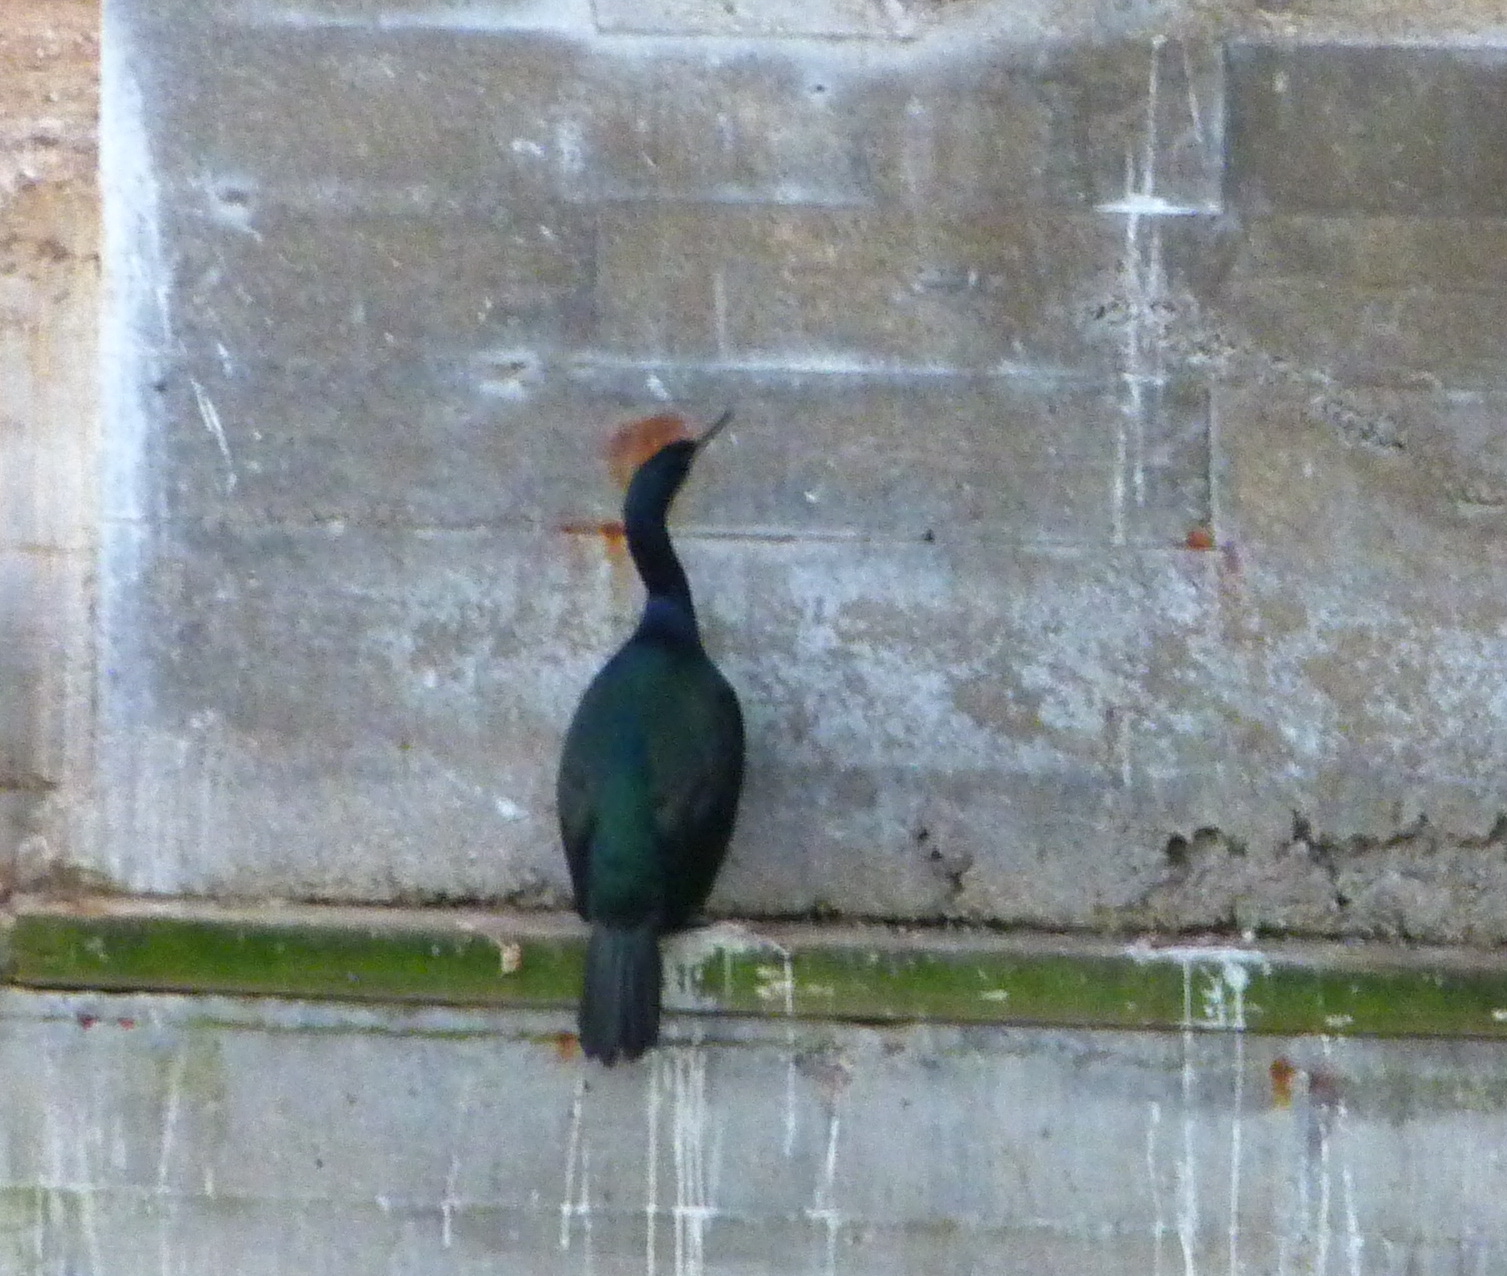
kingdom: Animalia
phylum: Chordata
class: Aves
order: Suliformes
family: Phalacrocoracidae
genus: Phalacrocorax
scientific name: Phalacrocorax pelagicus
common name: Pelagic cormorant
